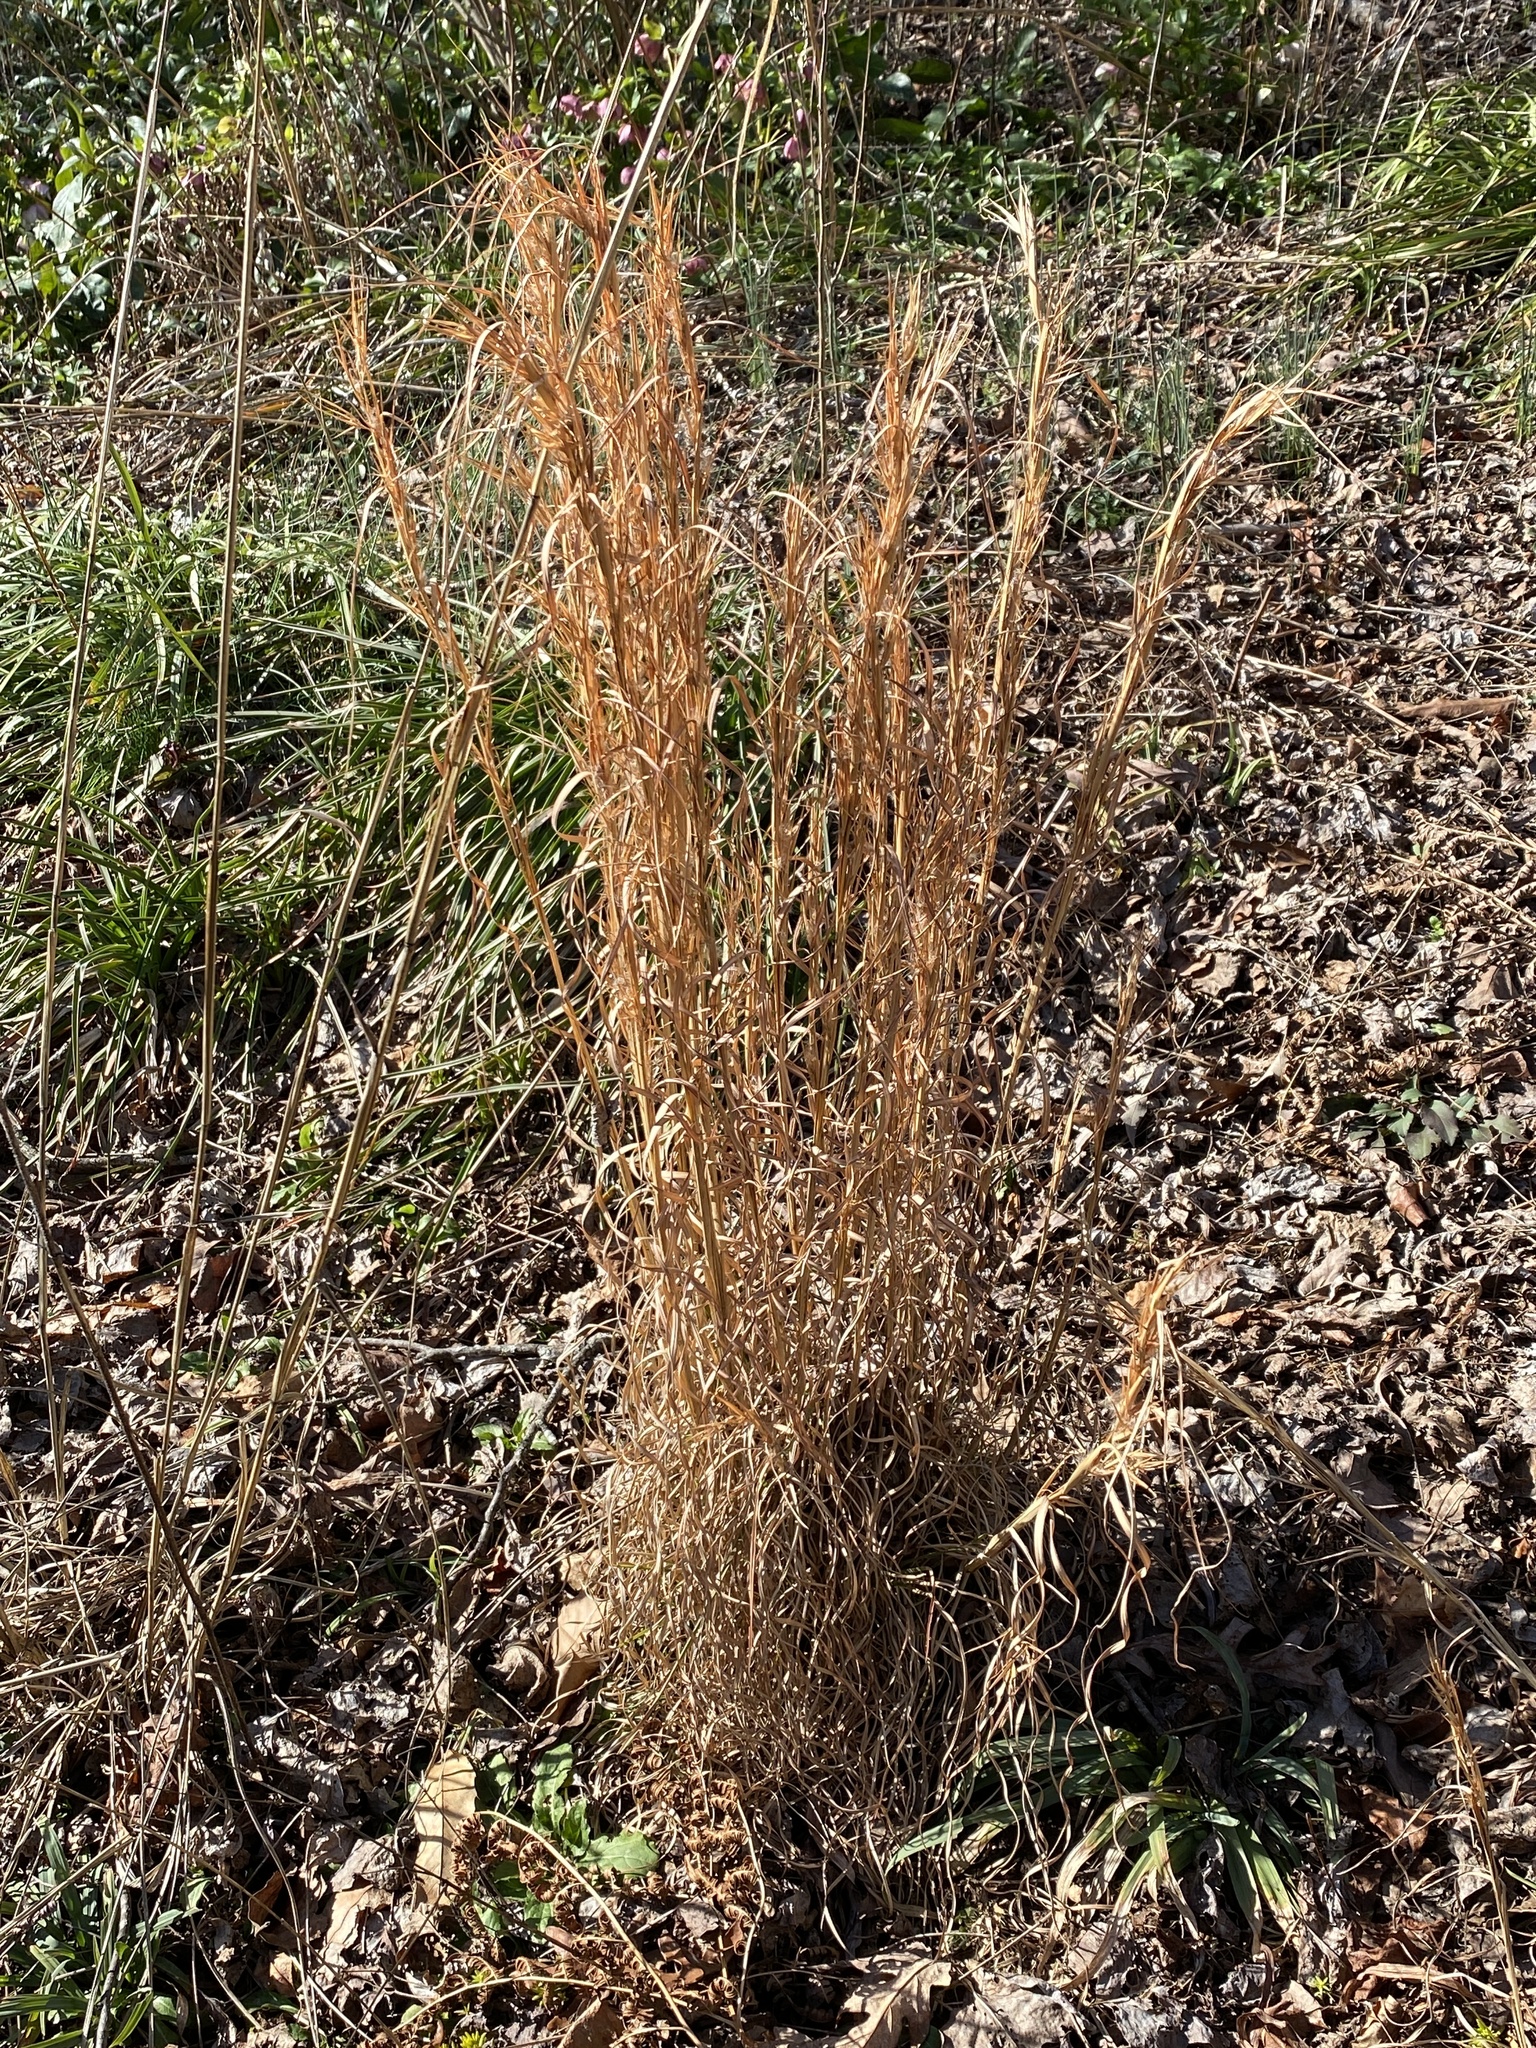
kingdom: Plantae
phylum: Tracheophyta
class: Liliopsida
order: Poales
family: Poaceae
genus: Andropogon
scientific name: Andropogon virginicus
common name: Broomsedge bluestem
